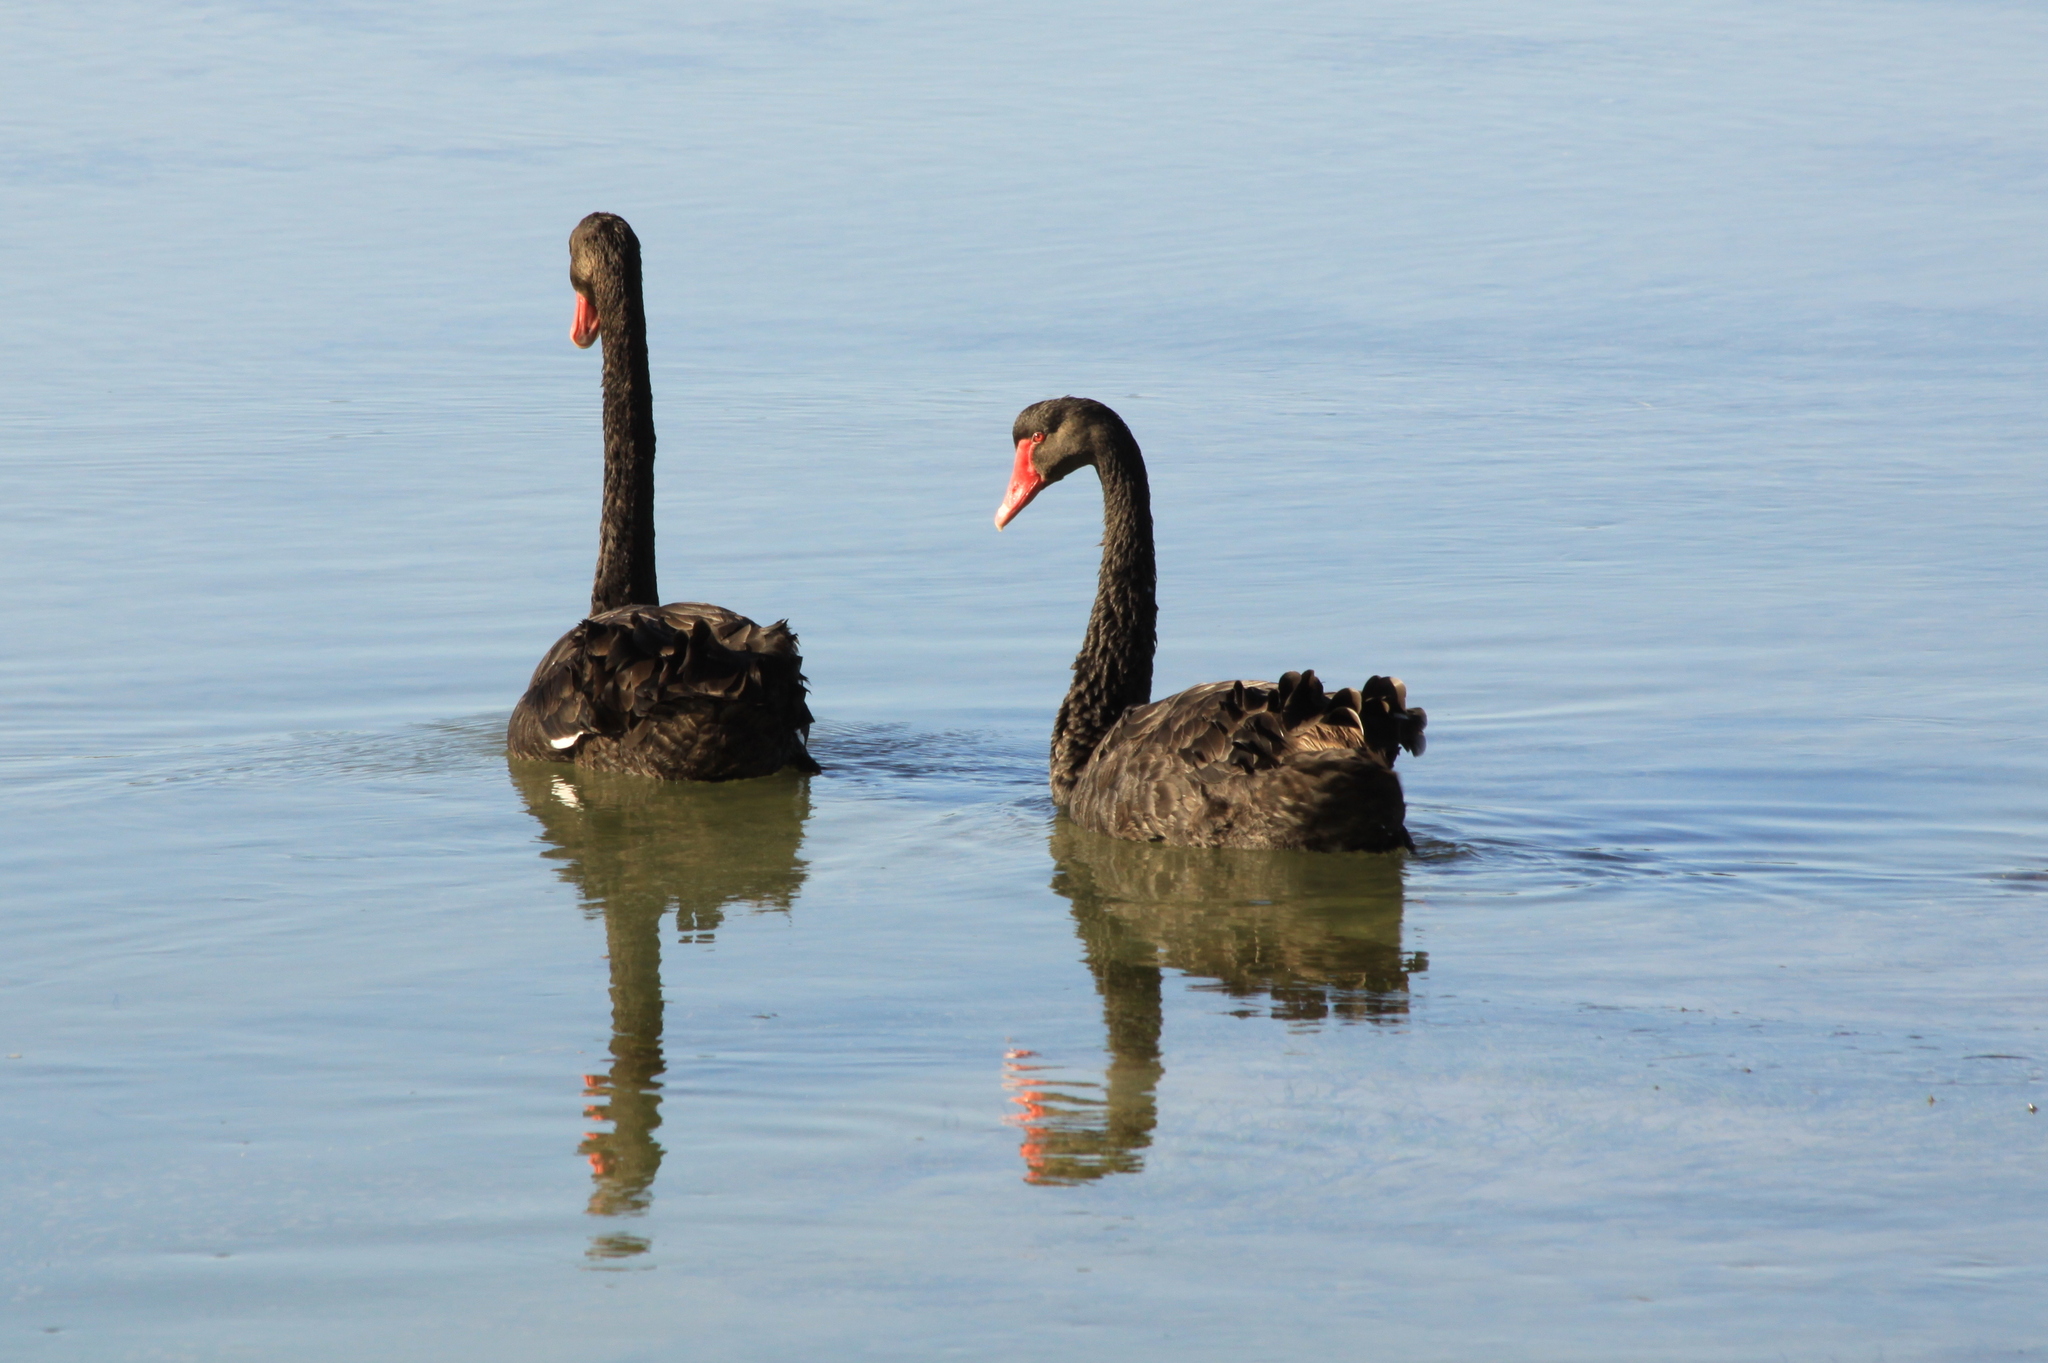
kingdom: Animalia
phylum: Chordata
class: Aves
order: Anseriformes
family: Anatidae
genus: Cygnus
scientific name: Cygnus atratus
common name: Black swan
